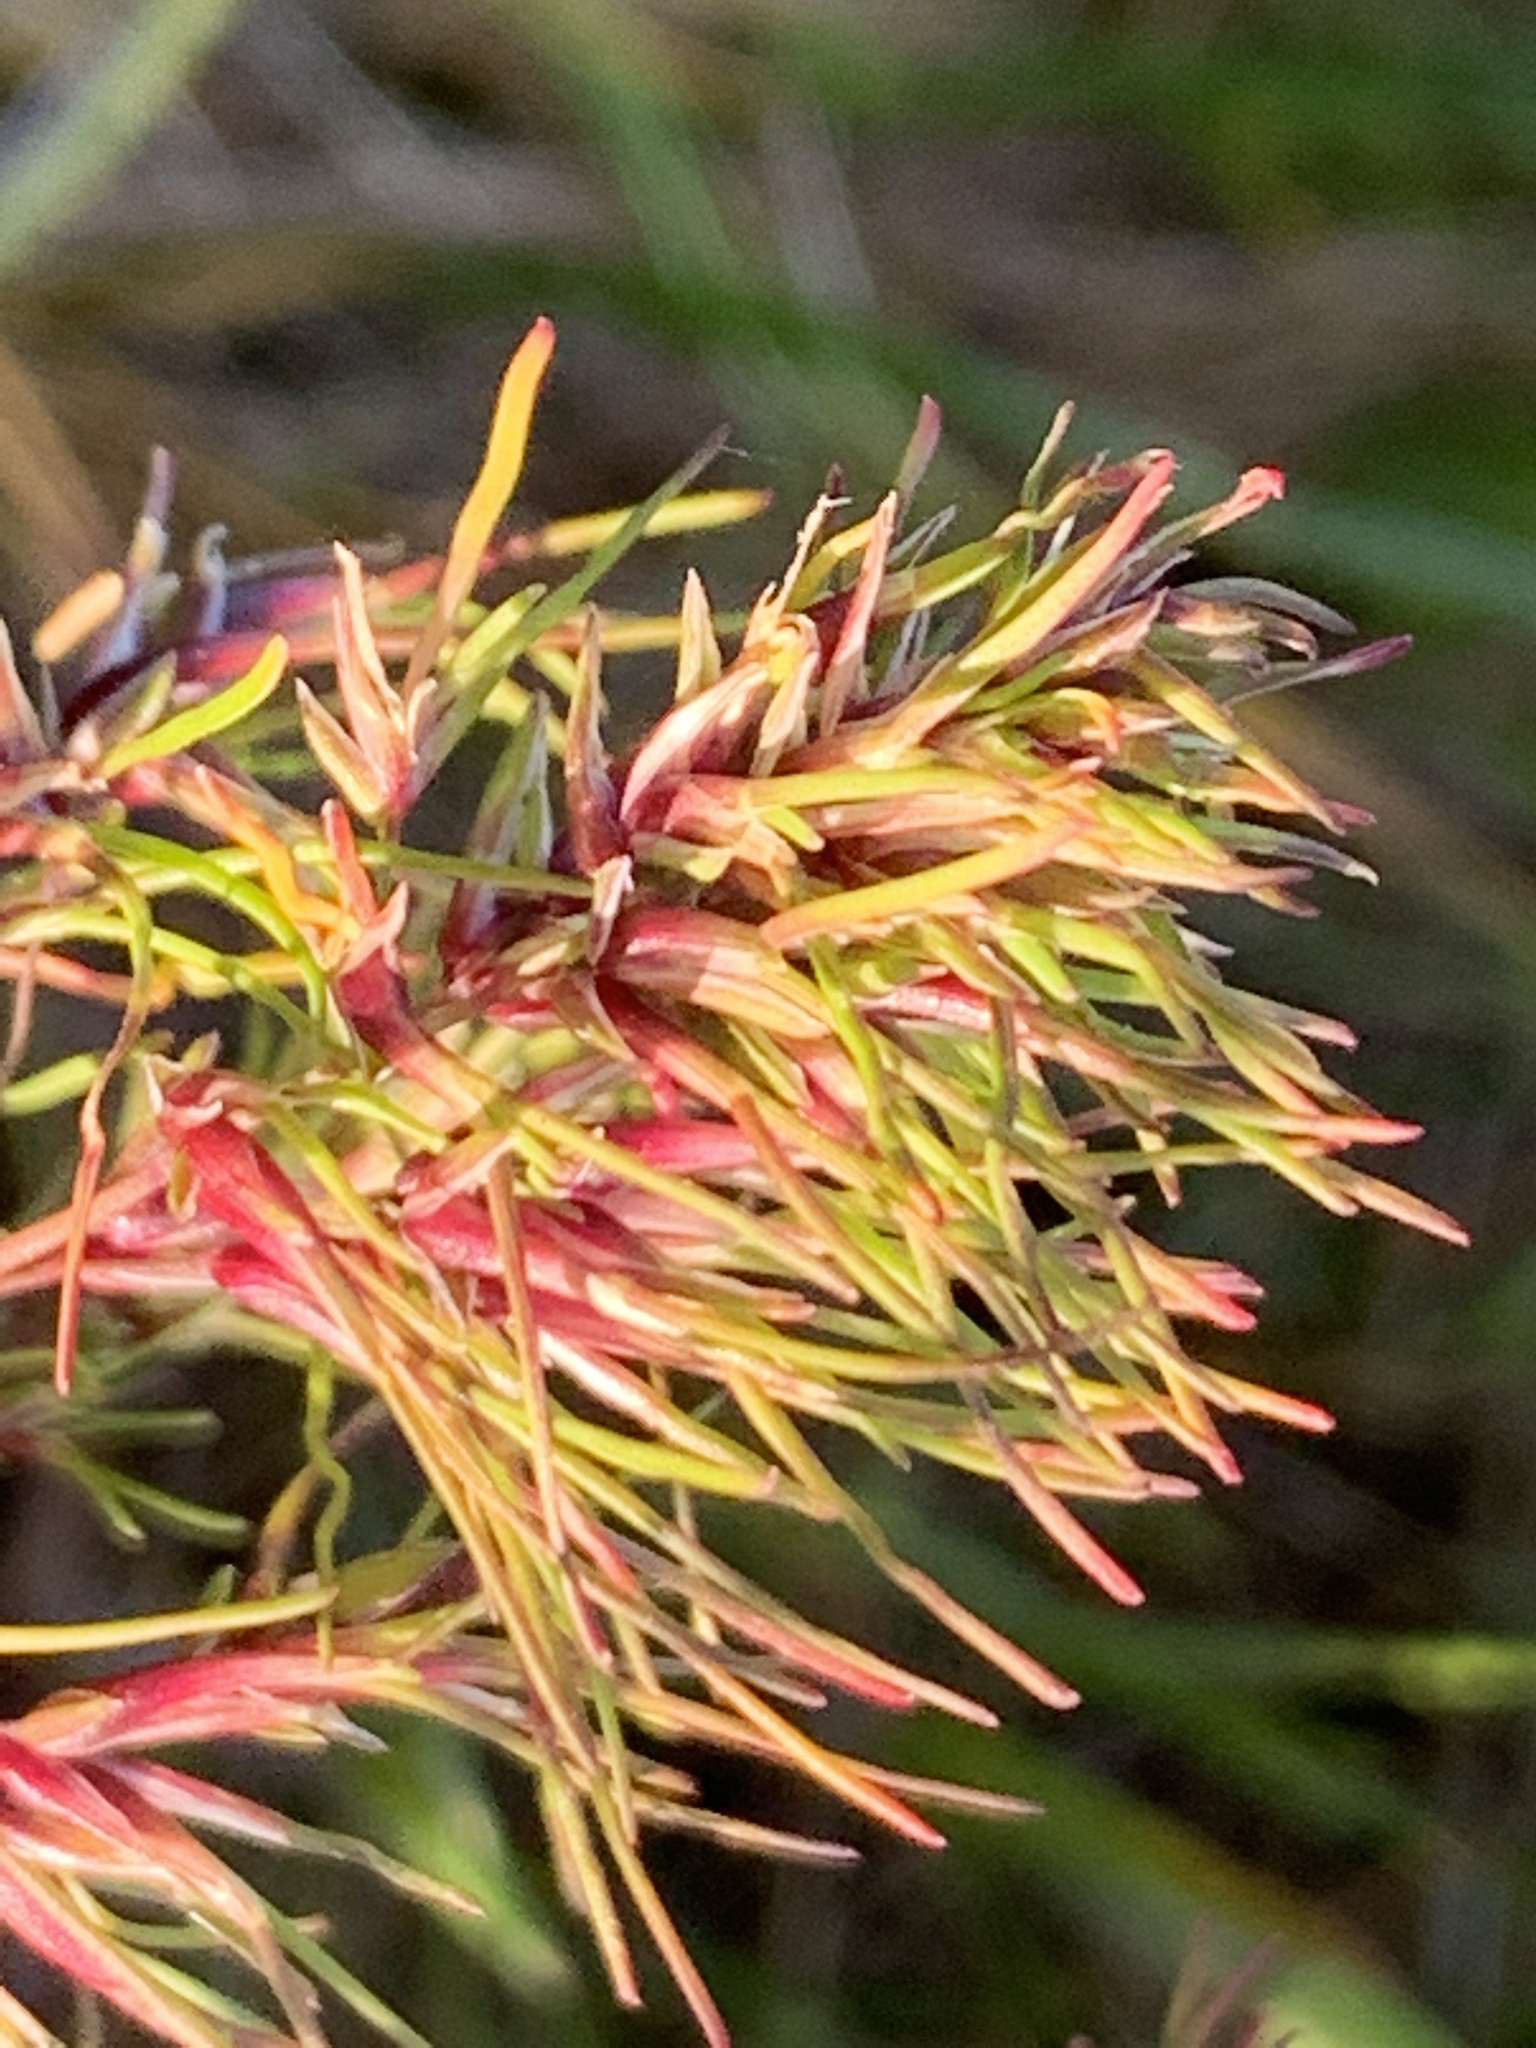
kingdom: Plantae
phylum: Tracheophyta
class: Liliopsida
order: Poales
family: Poaceae
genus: Poa
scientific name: Poa bulbosa
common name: Bulbous bluegrass
